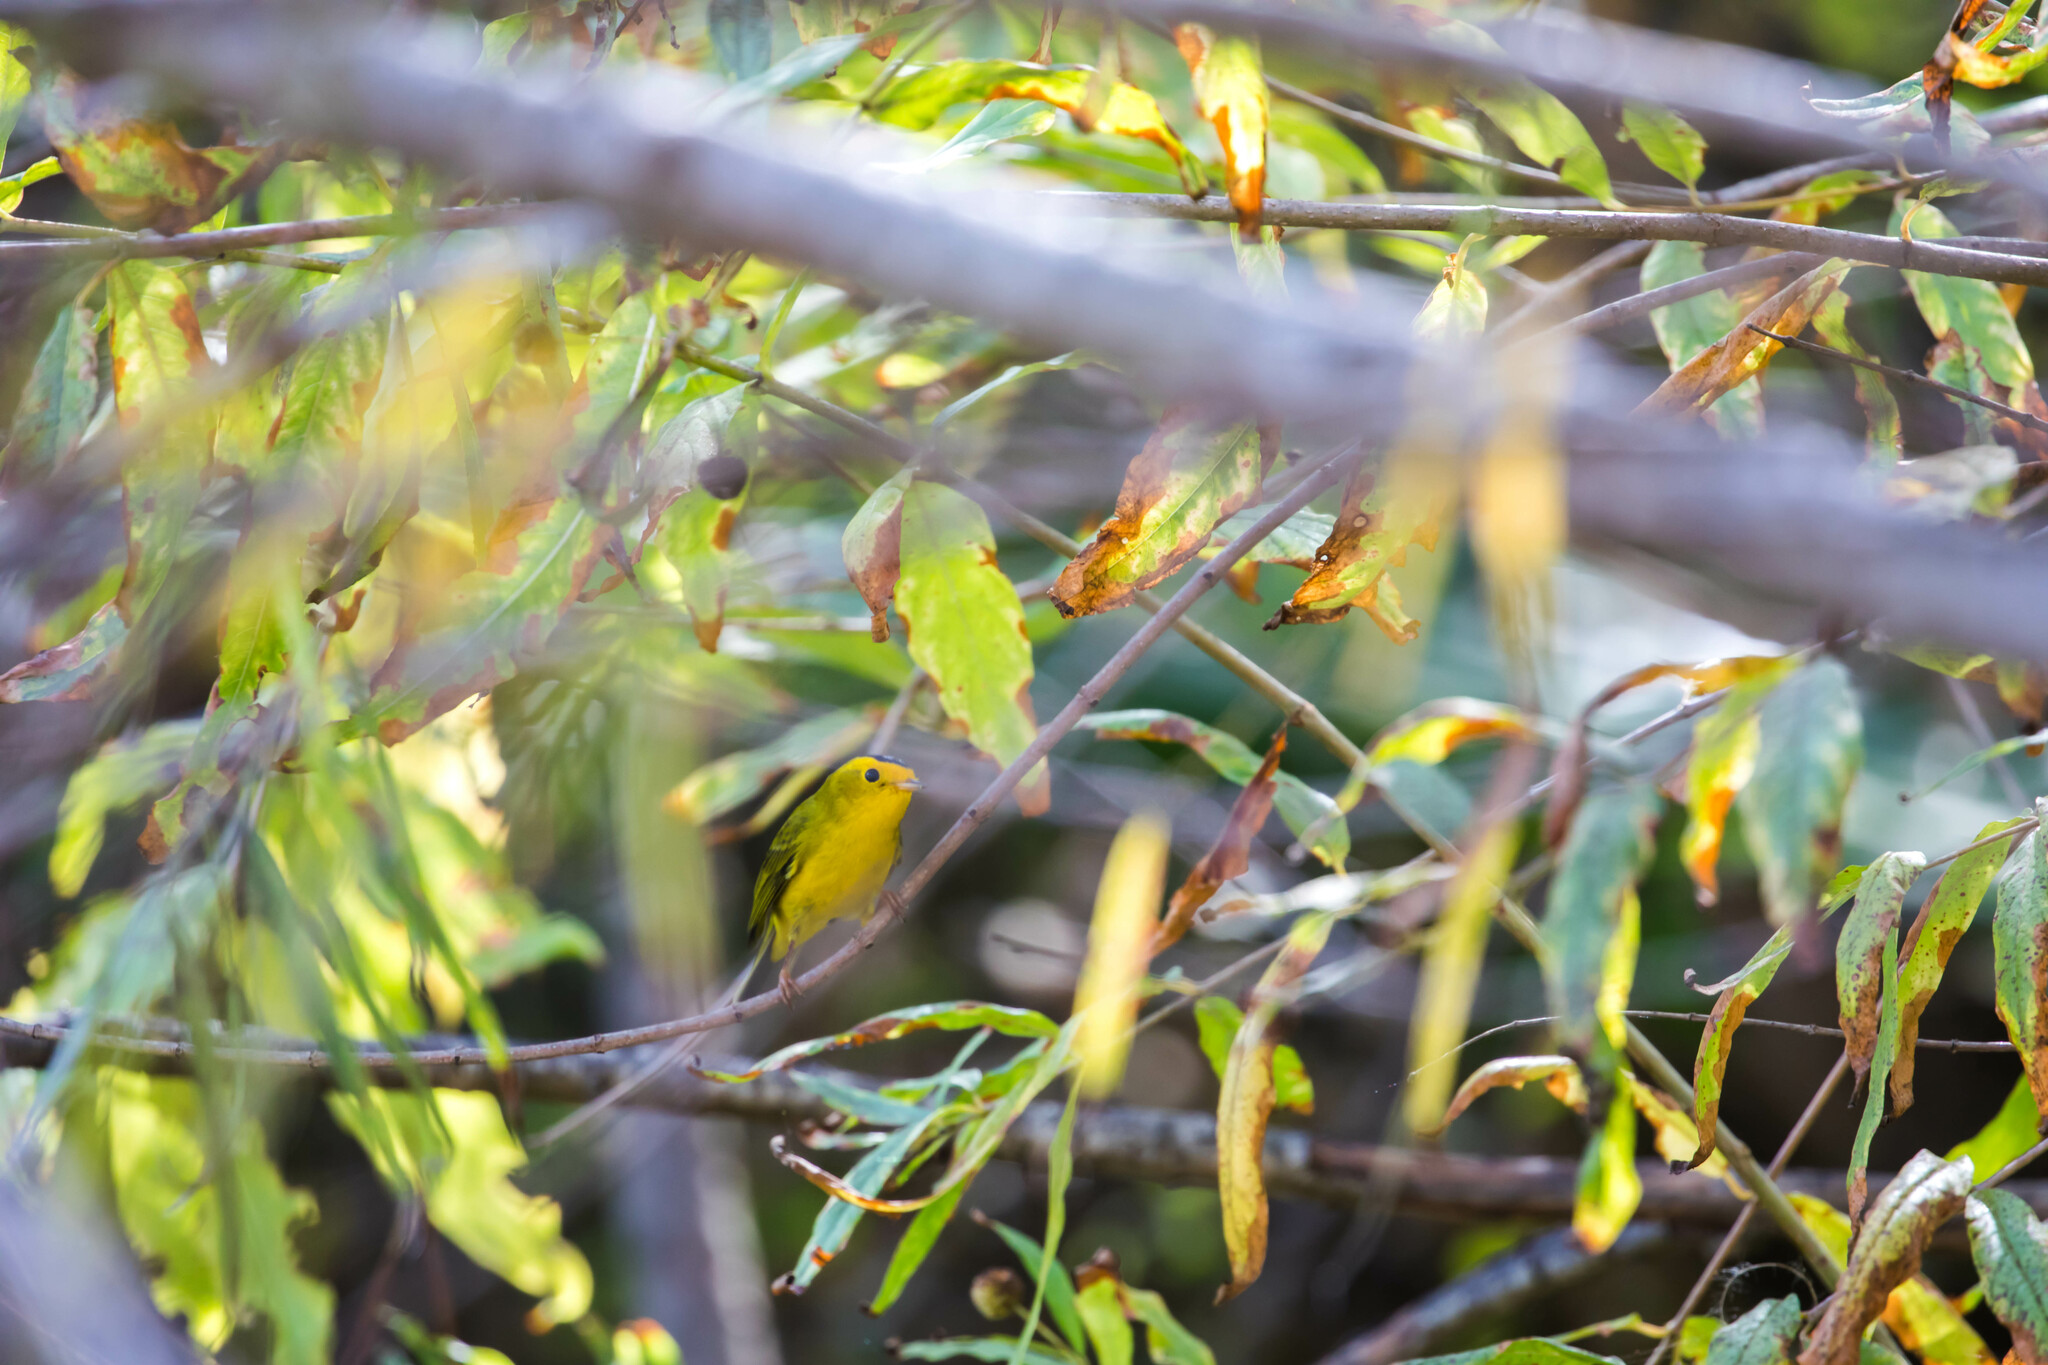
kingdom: Animalia
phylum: Chordata
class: Aves
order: Passeriformes
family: Parulidae
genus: Cardellina
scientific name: Cardellina pusilla
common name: Wilson's warbler
